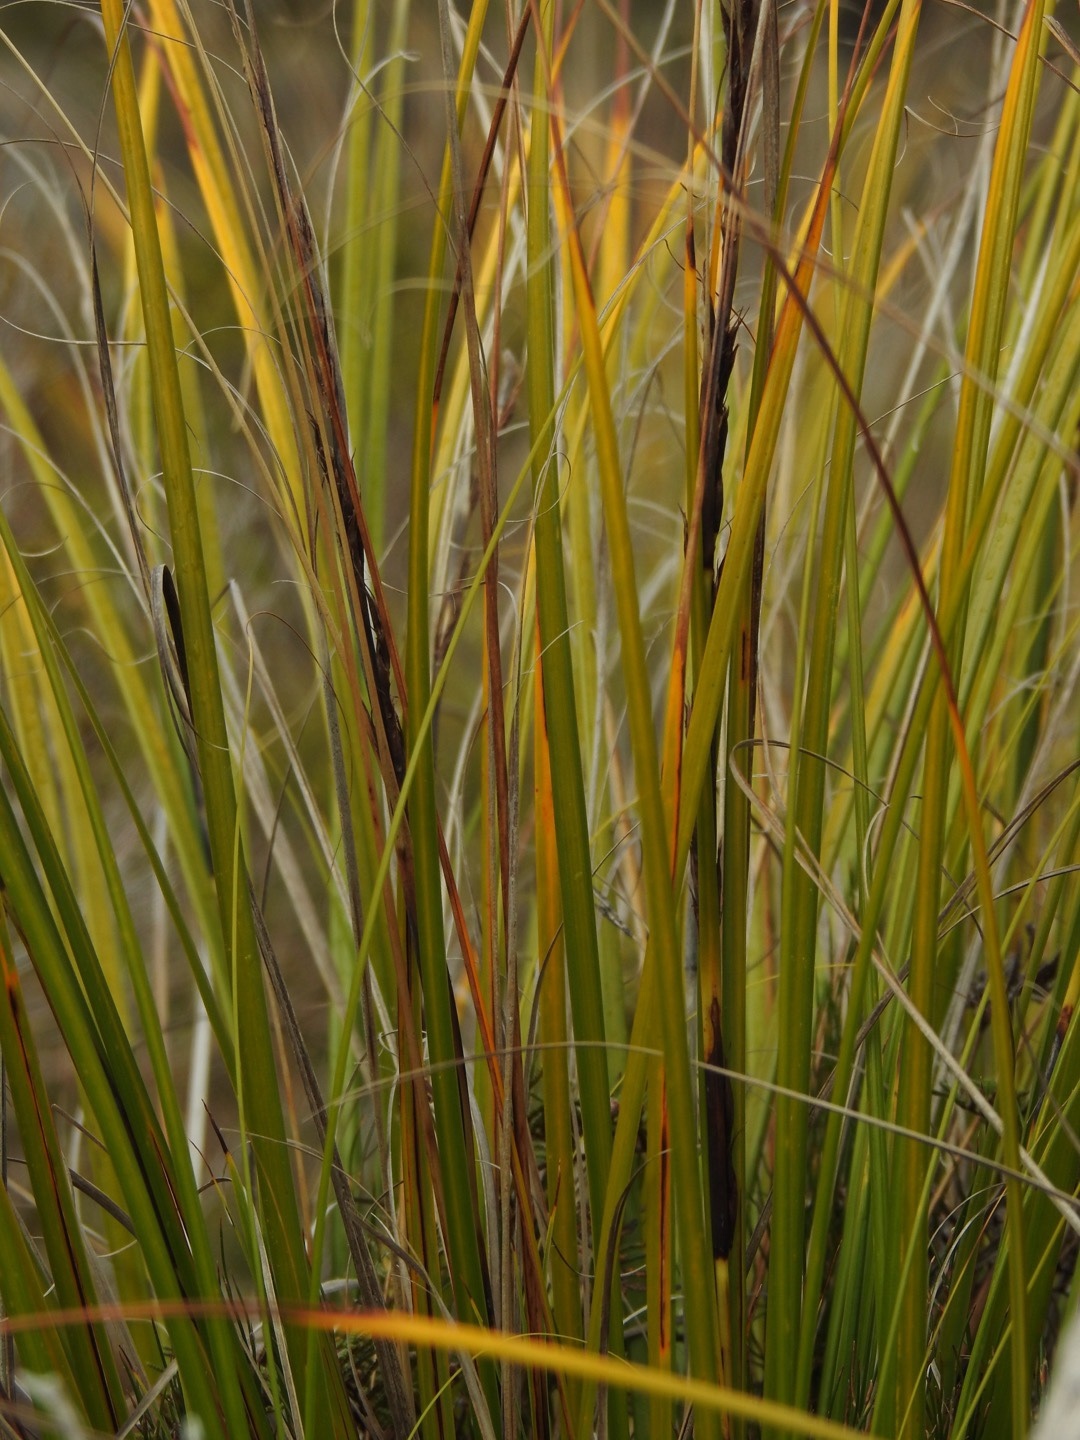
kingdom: Plantae
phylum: Tracheophyta
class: Liliopsida
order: Poales
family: Cyperaceae
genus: Gahnia
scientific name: Gahnia procera
